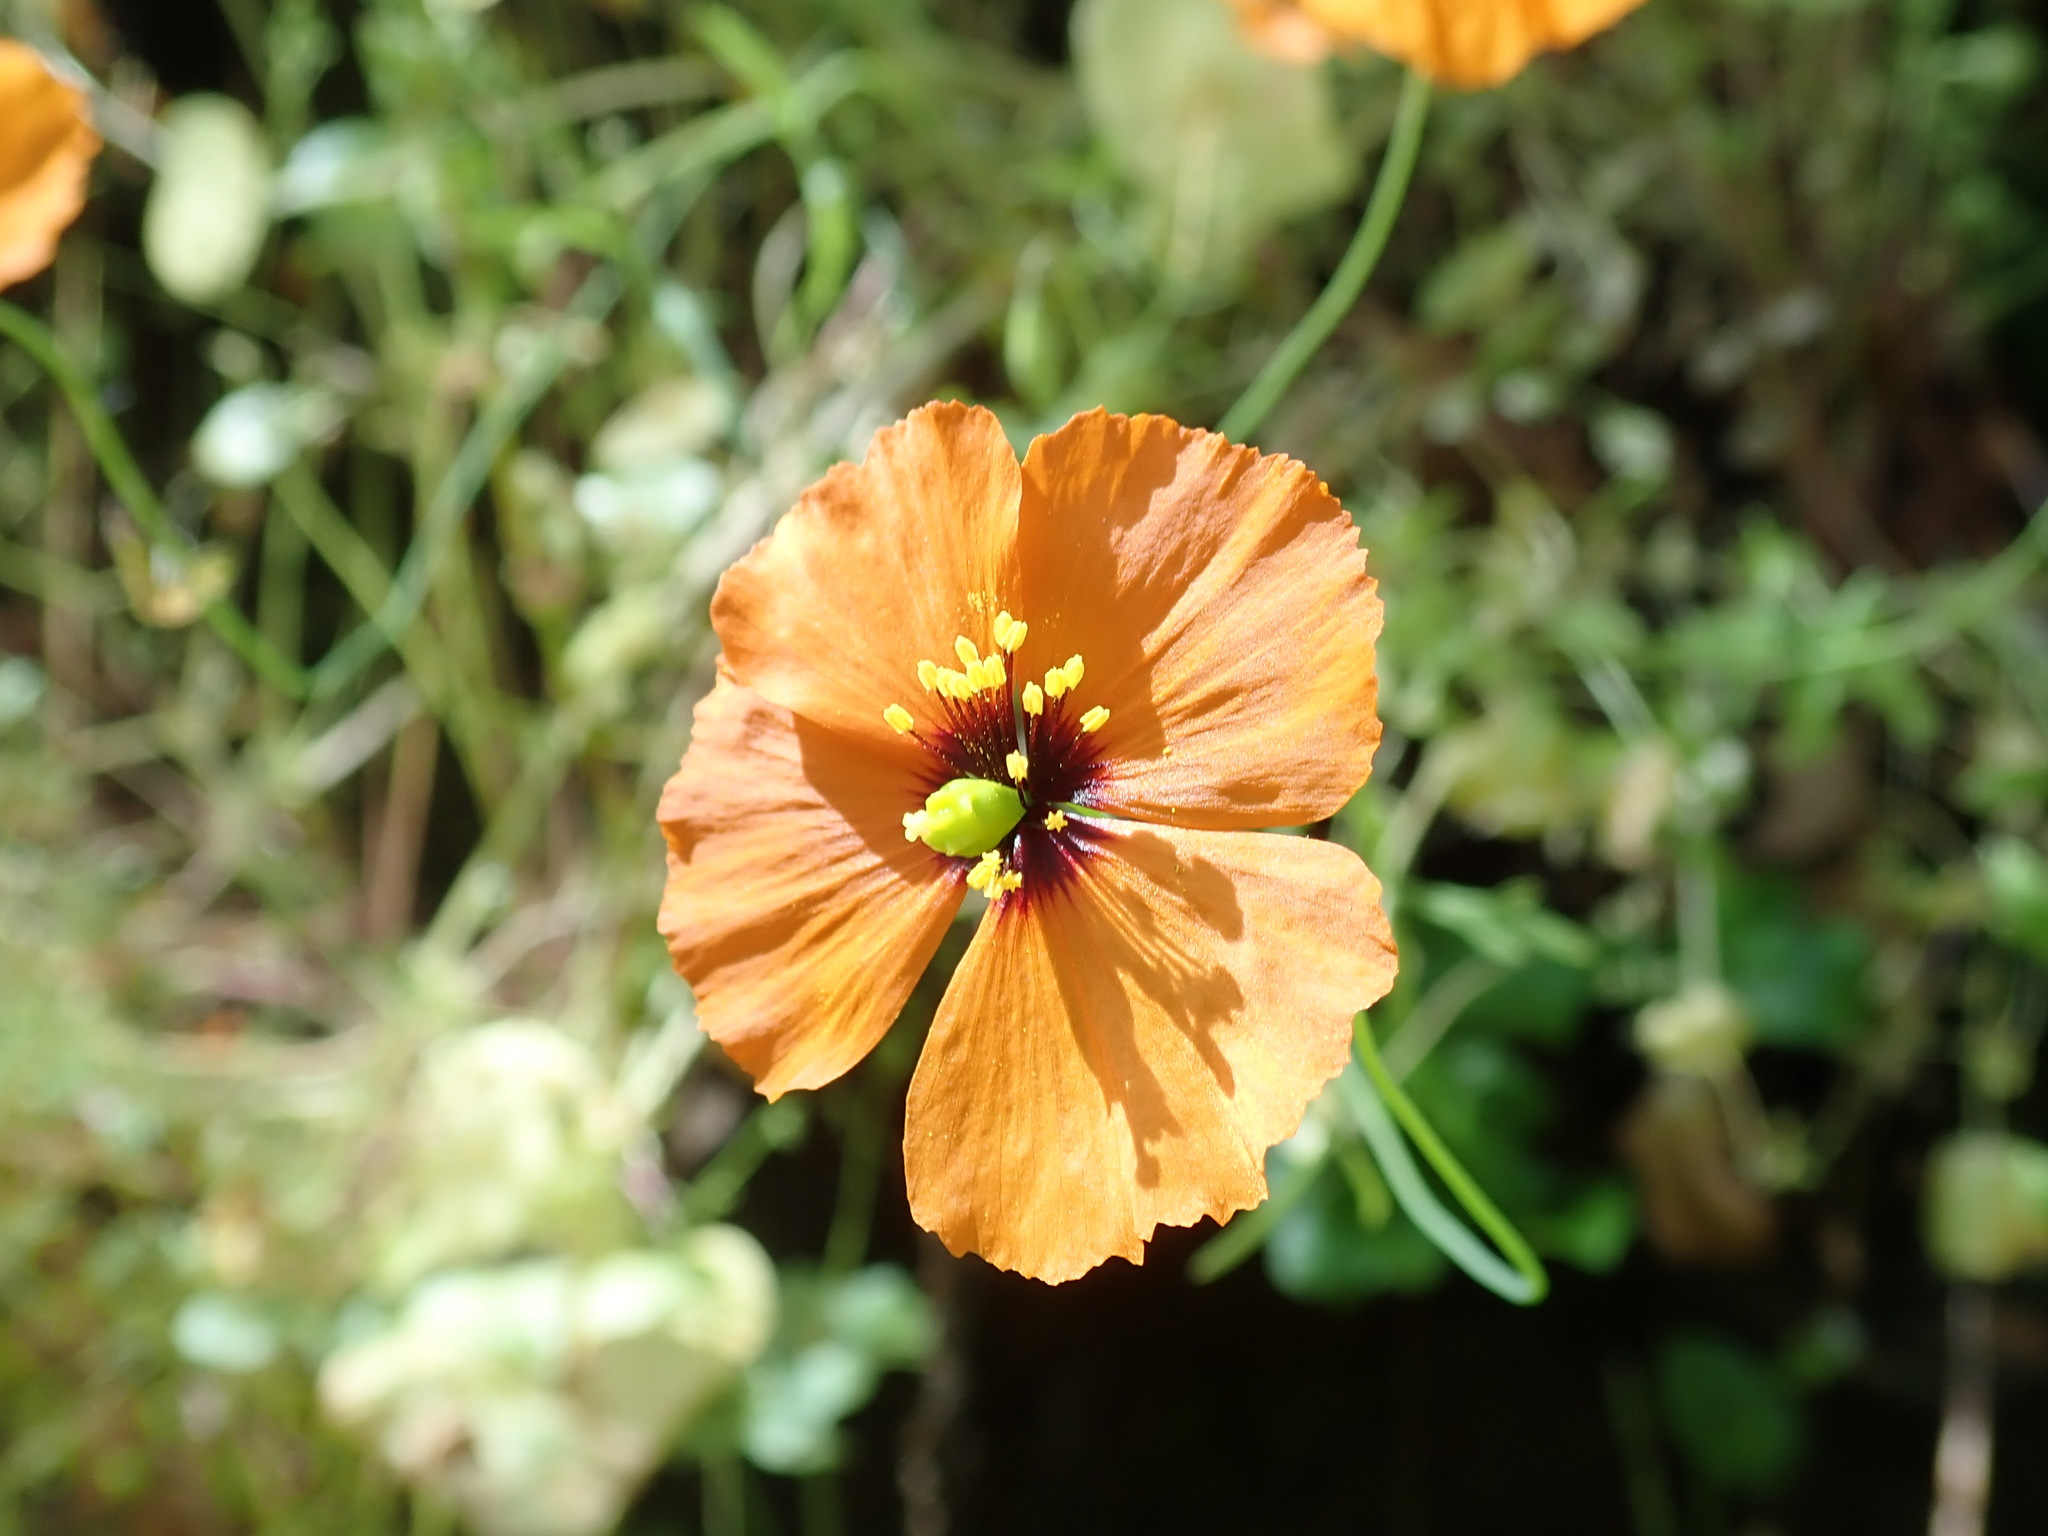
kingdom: Plantae
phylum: Tracheophyta
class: Magnoliopsida
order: Ranunculales
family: Papaveraceae
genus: Stylomecon
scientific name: Stylomecon heterophylla
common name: Flaming-poppy
